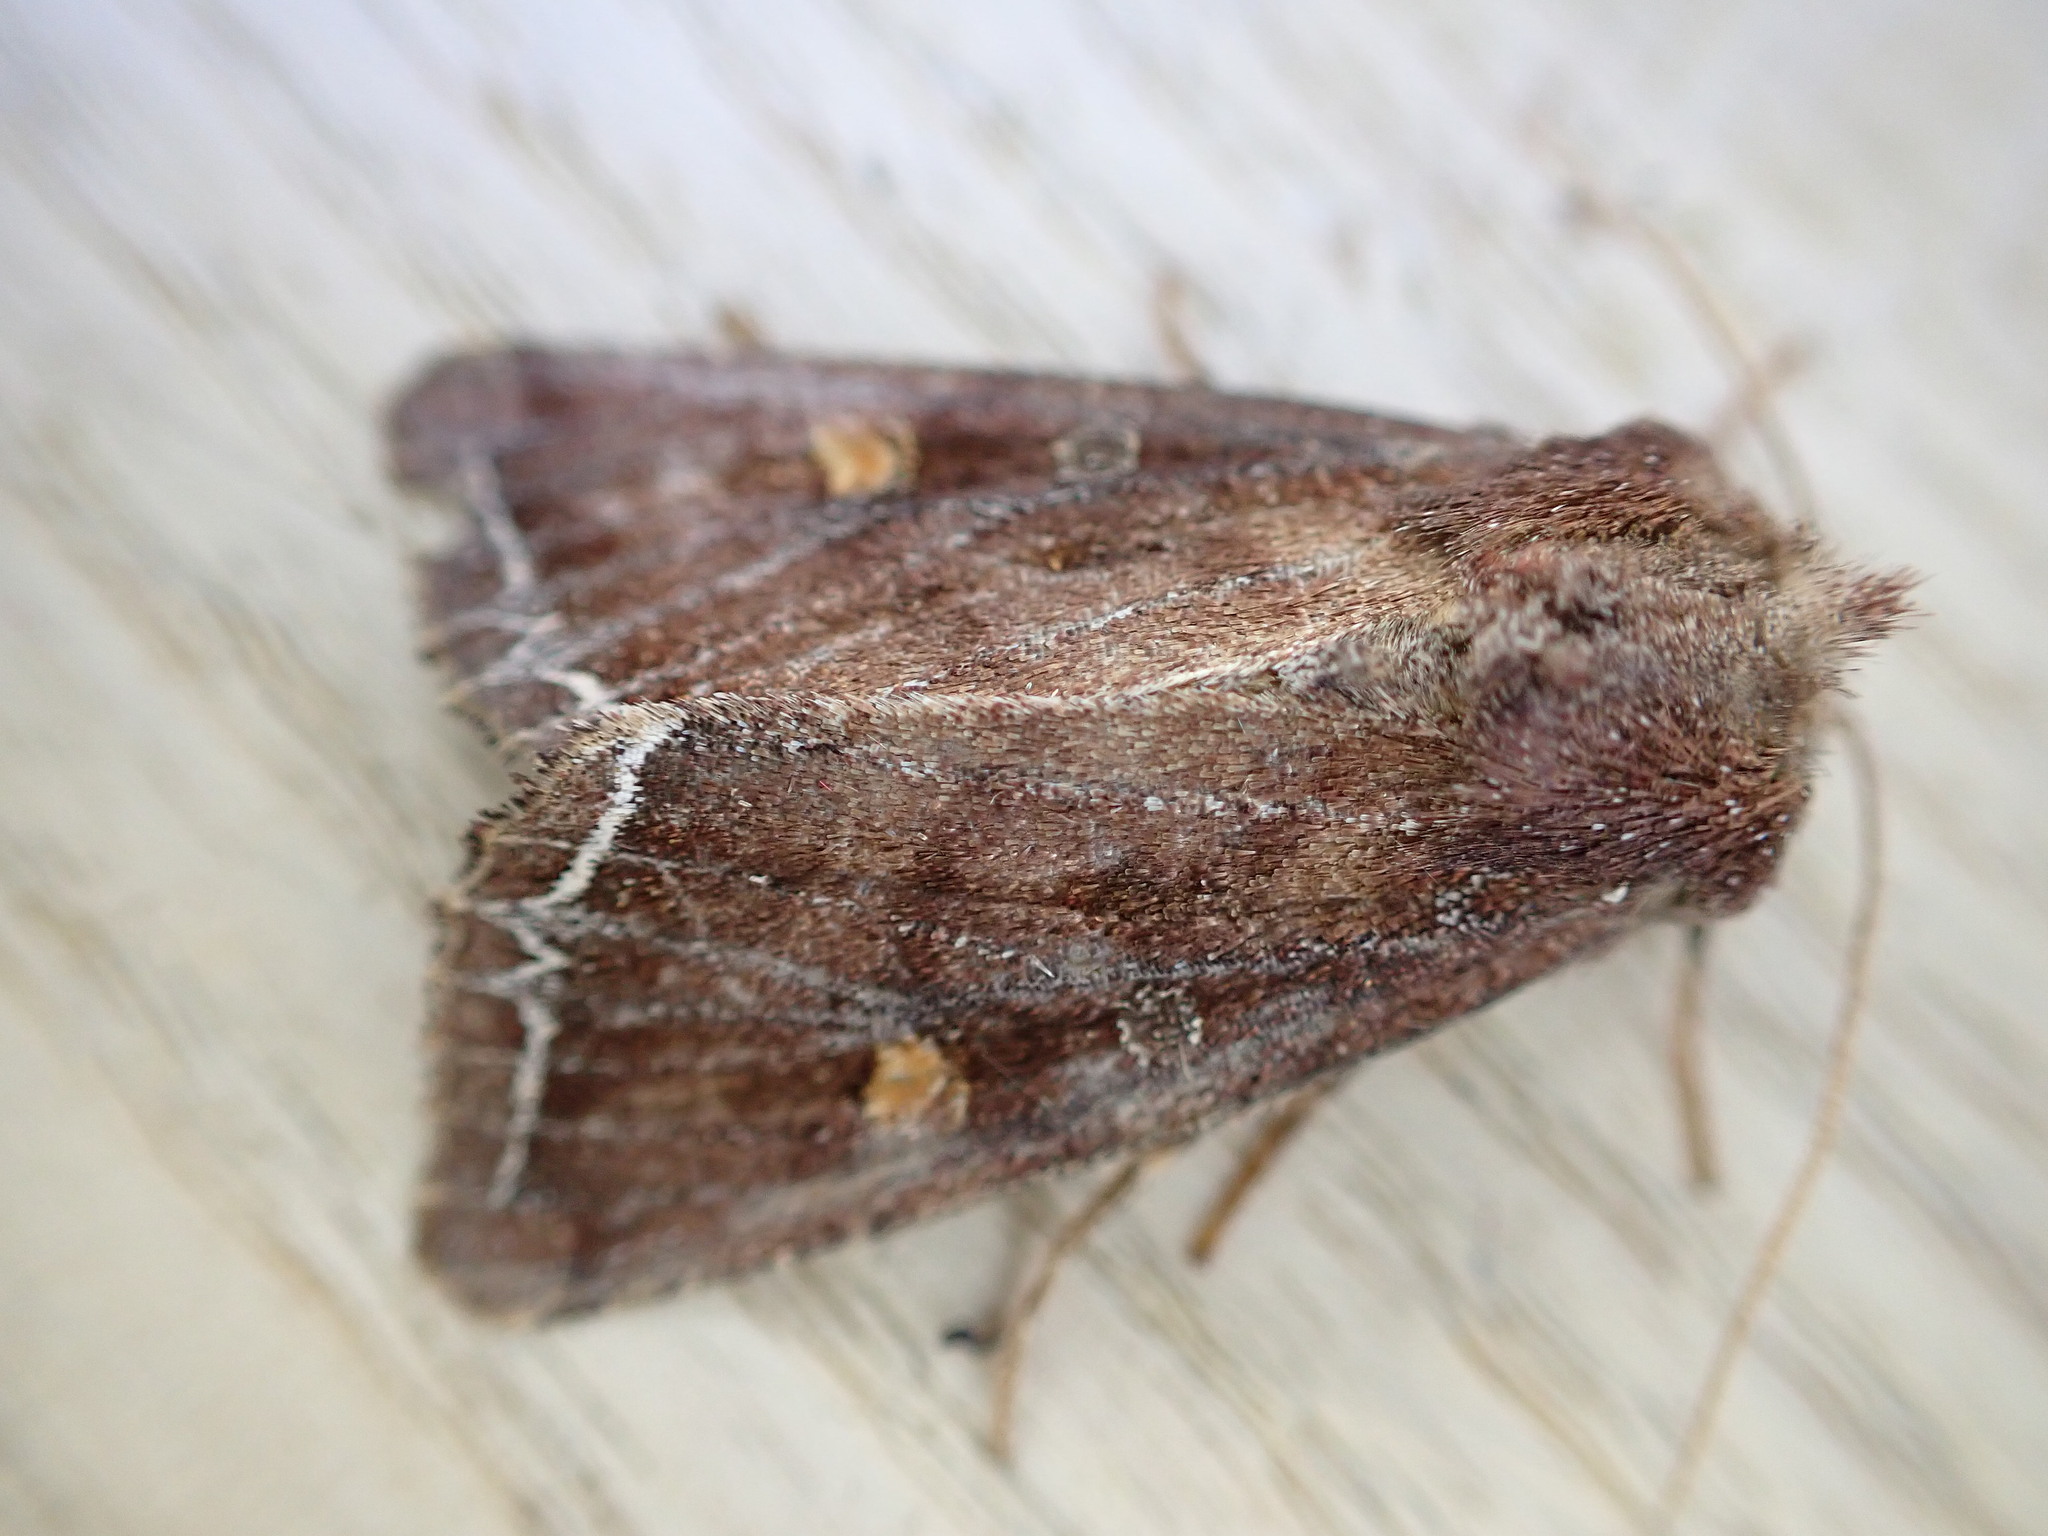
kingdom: Animalia
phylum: Arthropoda
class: Insecta
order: Lepidoptera
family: Noctuidae
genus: Lacanobia
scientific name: Lacanobia oleracea
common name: Bright-line brown-eye
